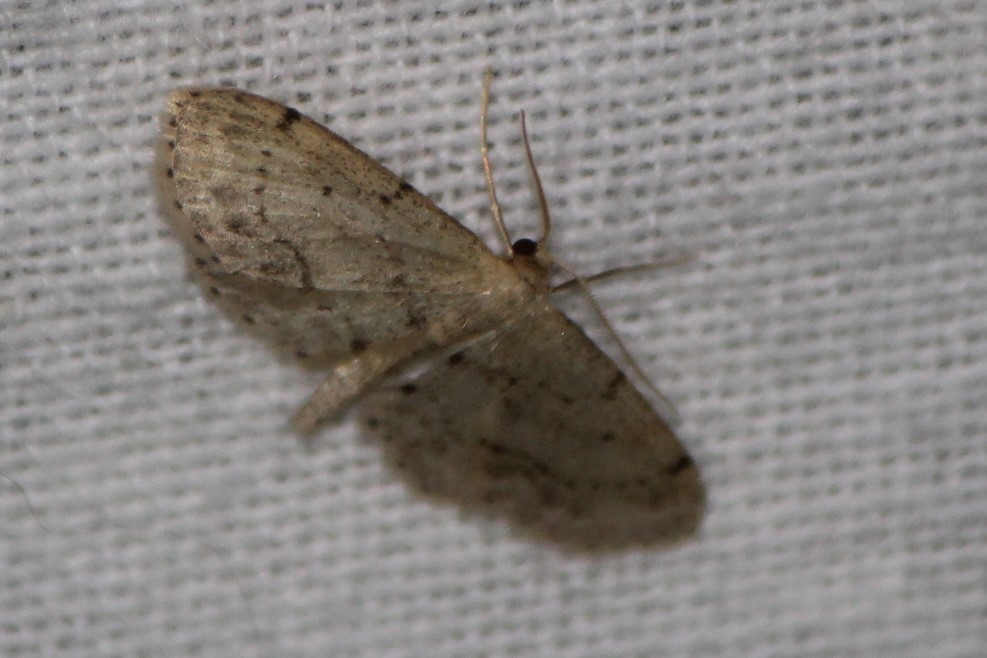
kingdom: Animalia
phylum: Arthropoda
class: Insecta
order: Lepidoptera
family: Geometridae
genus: Idaea
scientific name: Idaea dimidiata
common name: Single-dotted wave
